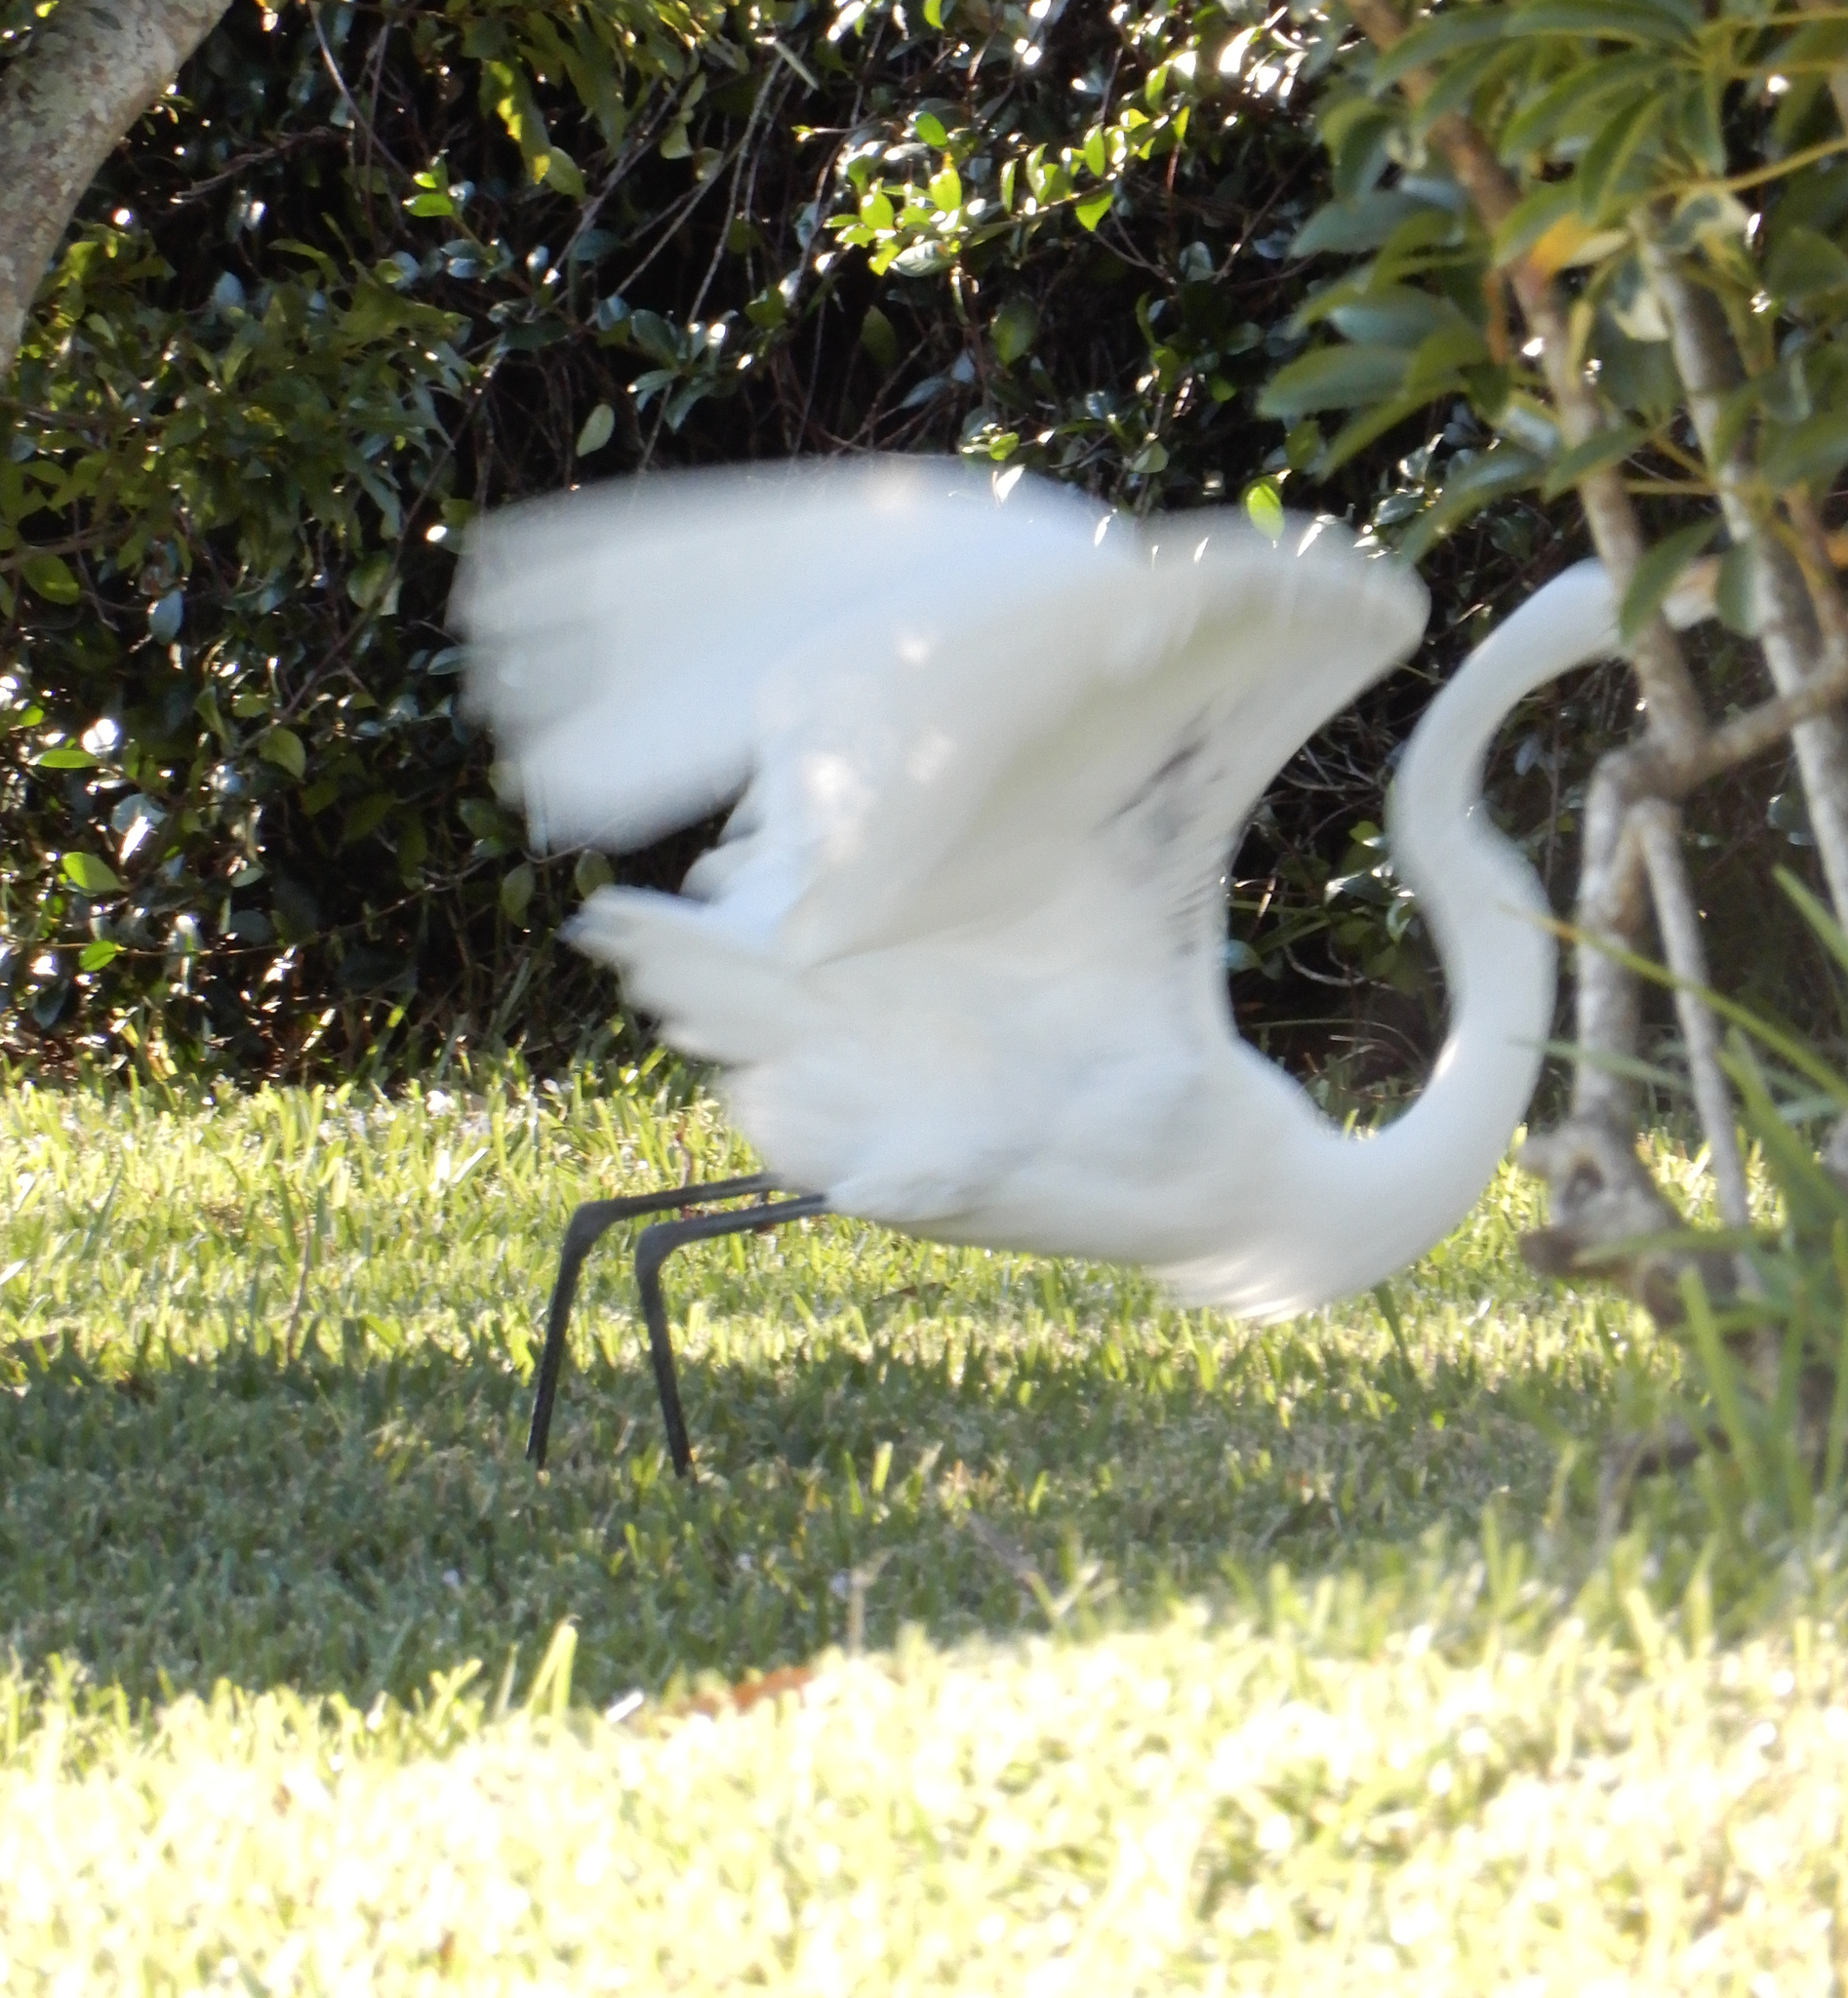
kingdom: Animalia
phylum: Chordata
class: Aves
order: Pelecaniformes
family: Ardeidae
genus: Ardea
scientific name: Ardea alba
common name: Great egret
